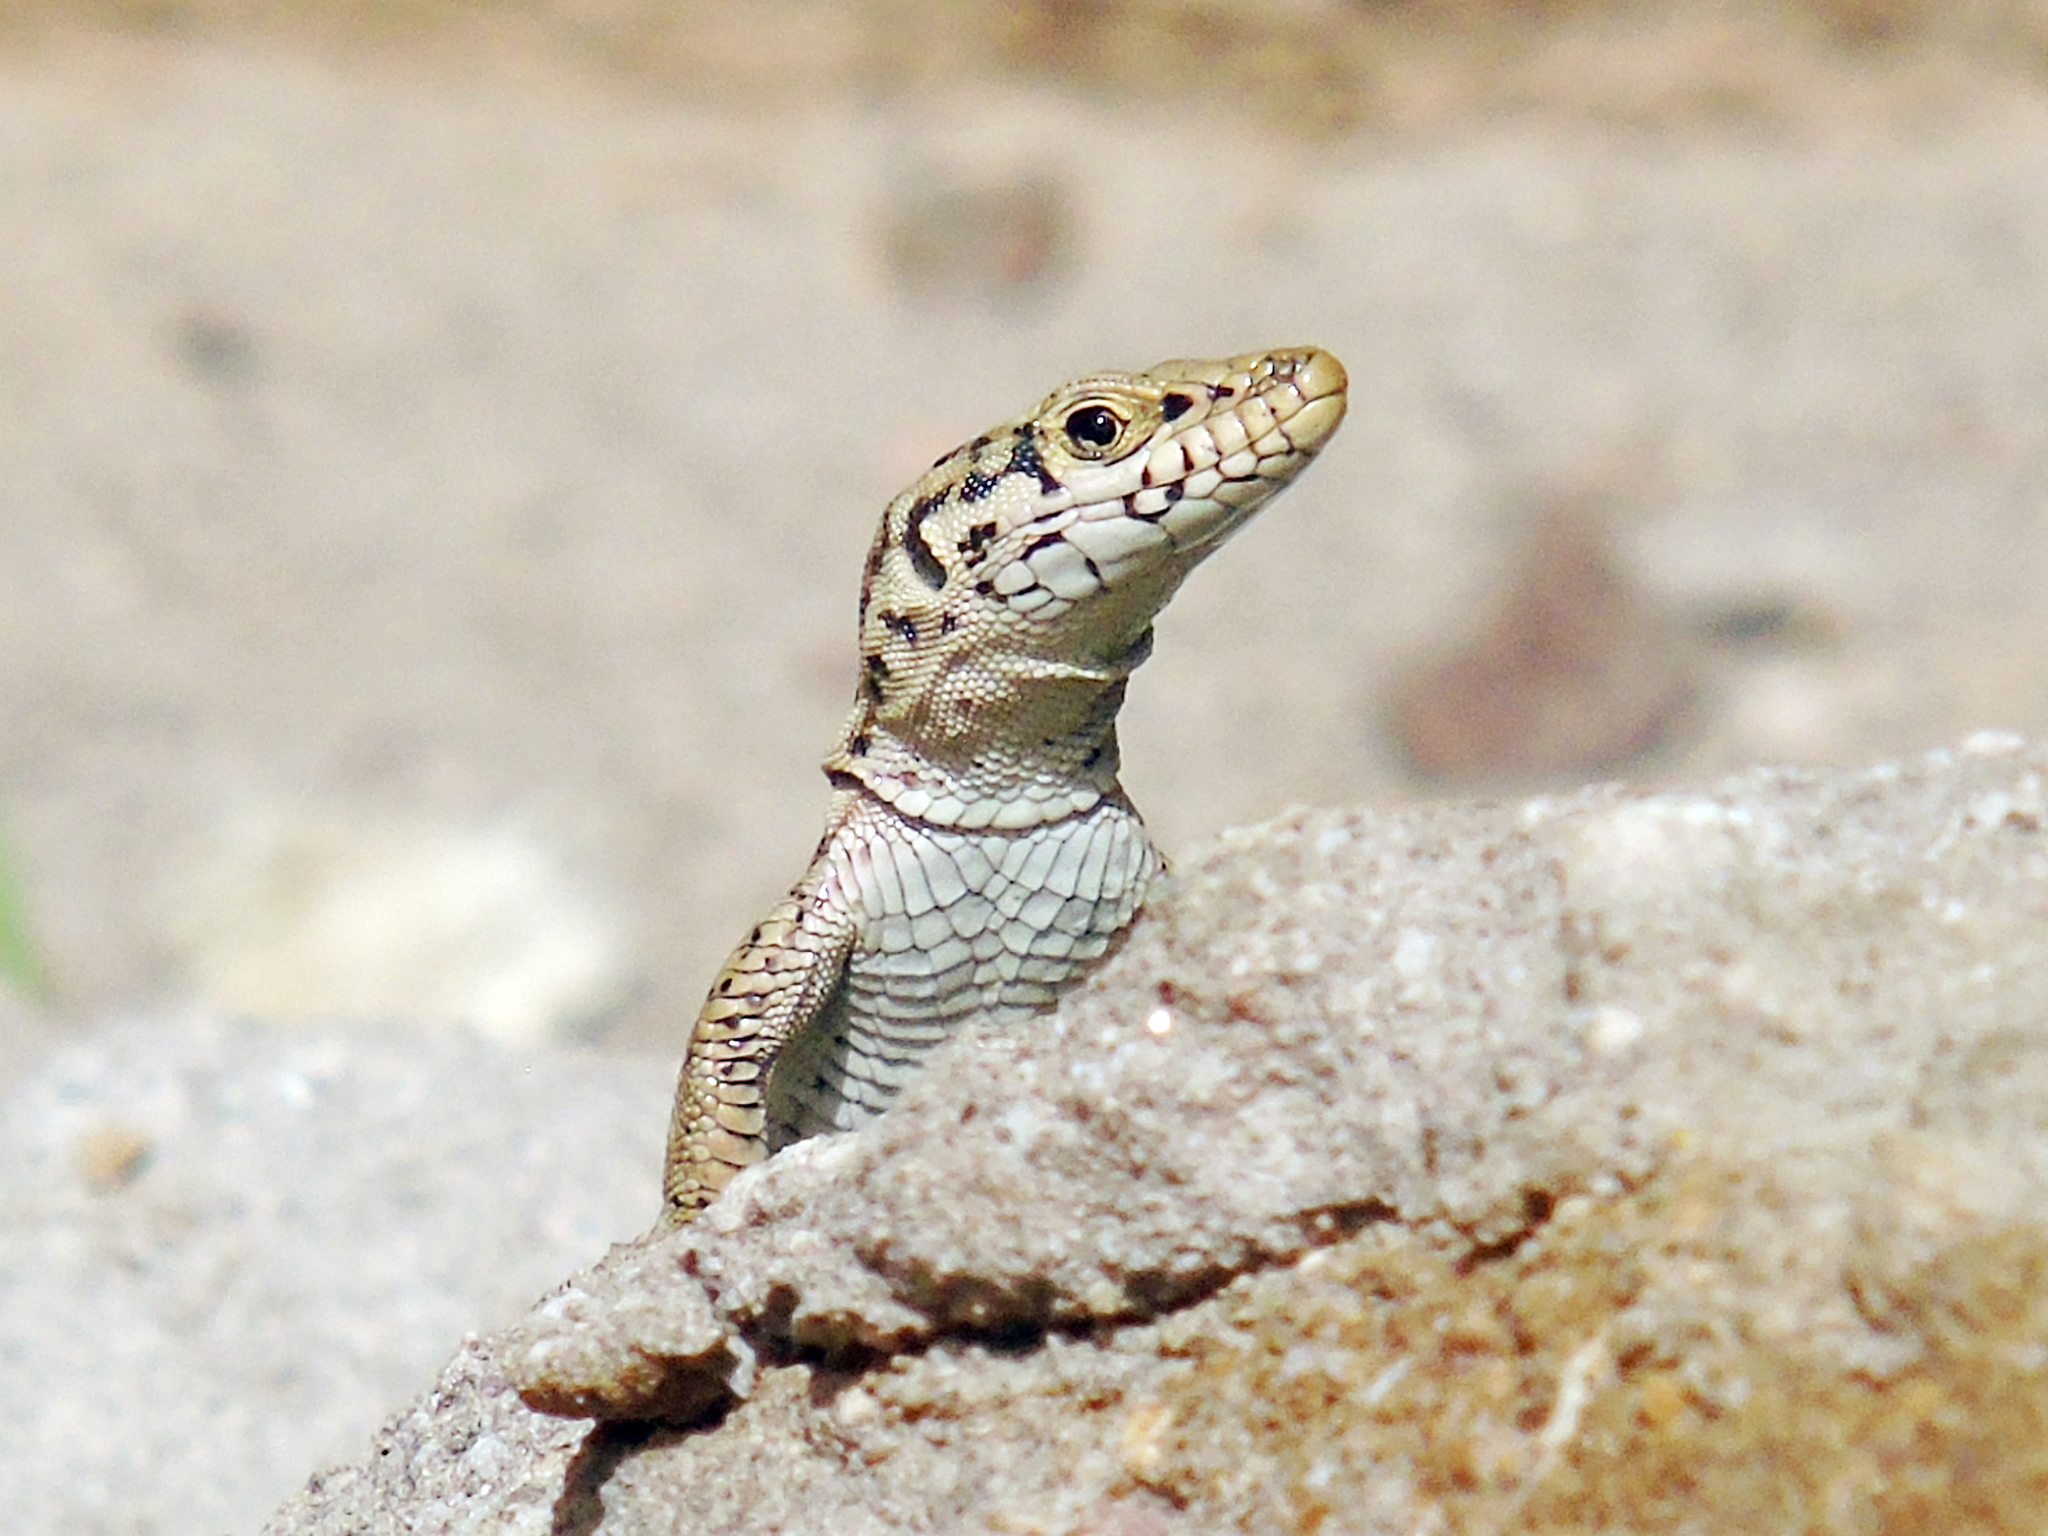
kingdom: Animalia
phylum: Chordata
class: Squamata
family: Lacertidae
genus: Apathya
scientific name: Apathya cappadocica
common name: Anatolian lizard
